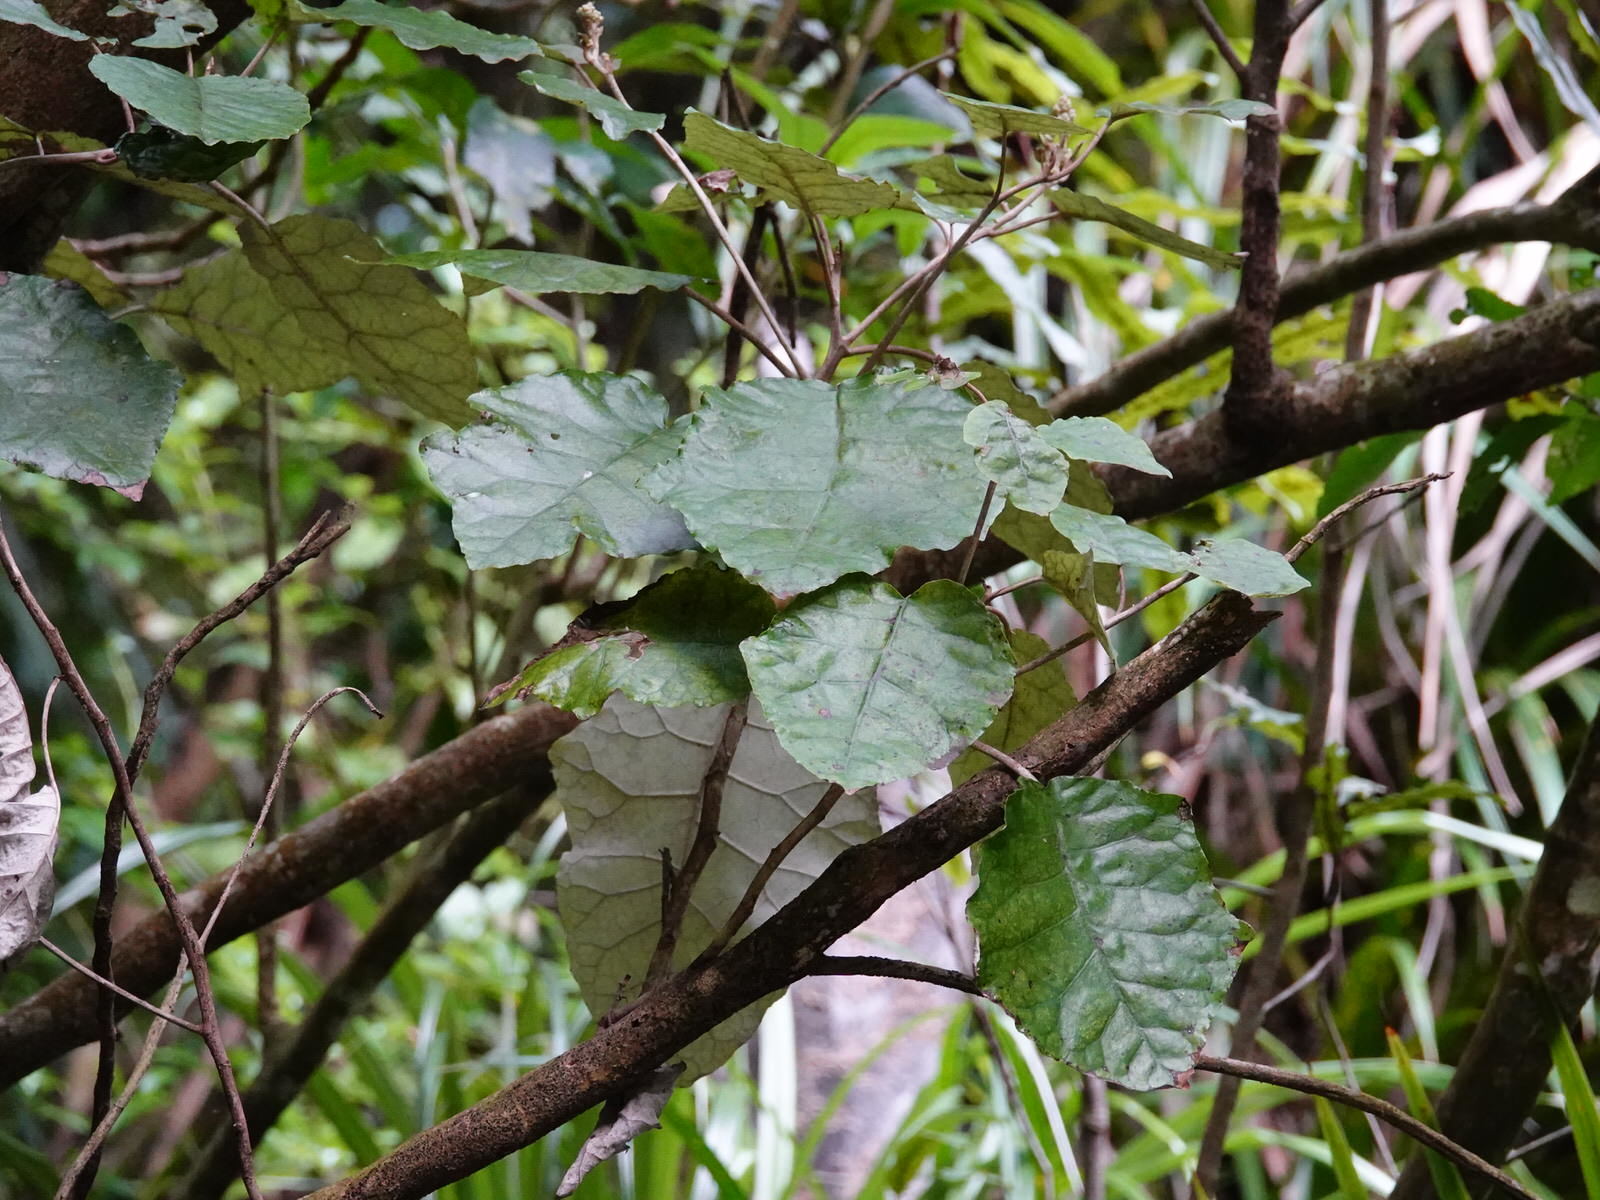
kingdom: Plantae
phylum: Tracheophyta
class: Magnoliopsida
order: Asterales
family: Asteraceae
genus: Brachyglottis
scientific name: Brachyglottis repanda
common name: Hedge ragwort
